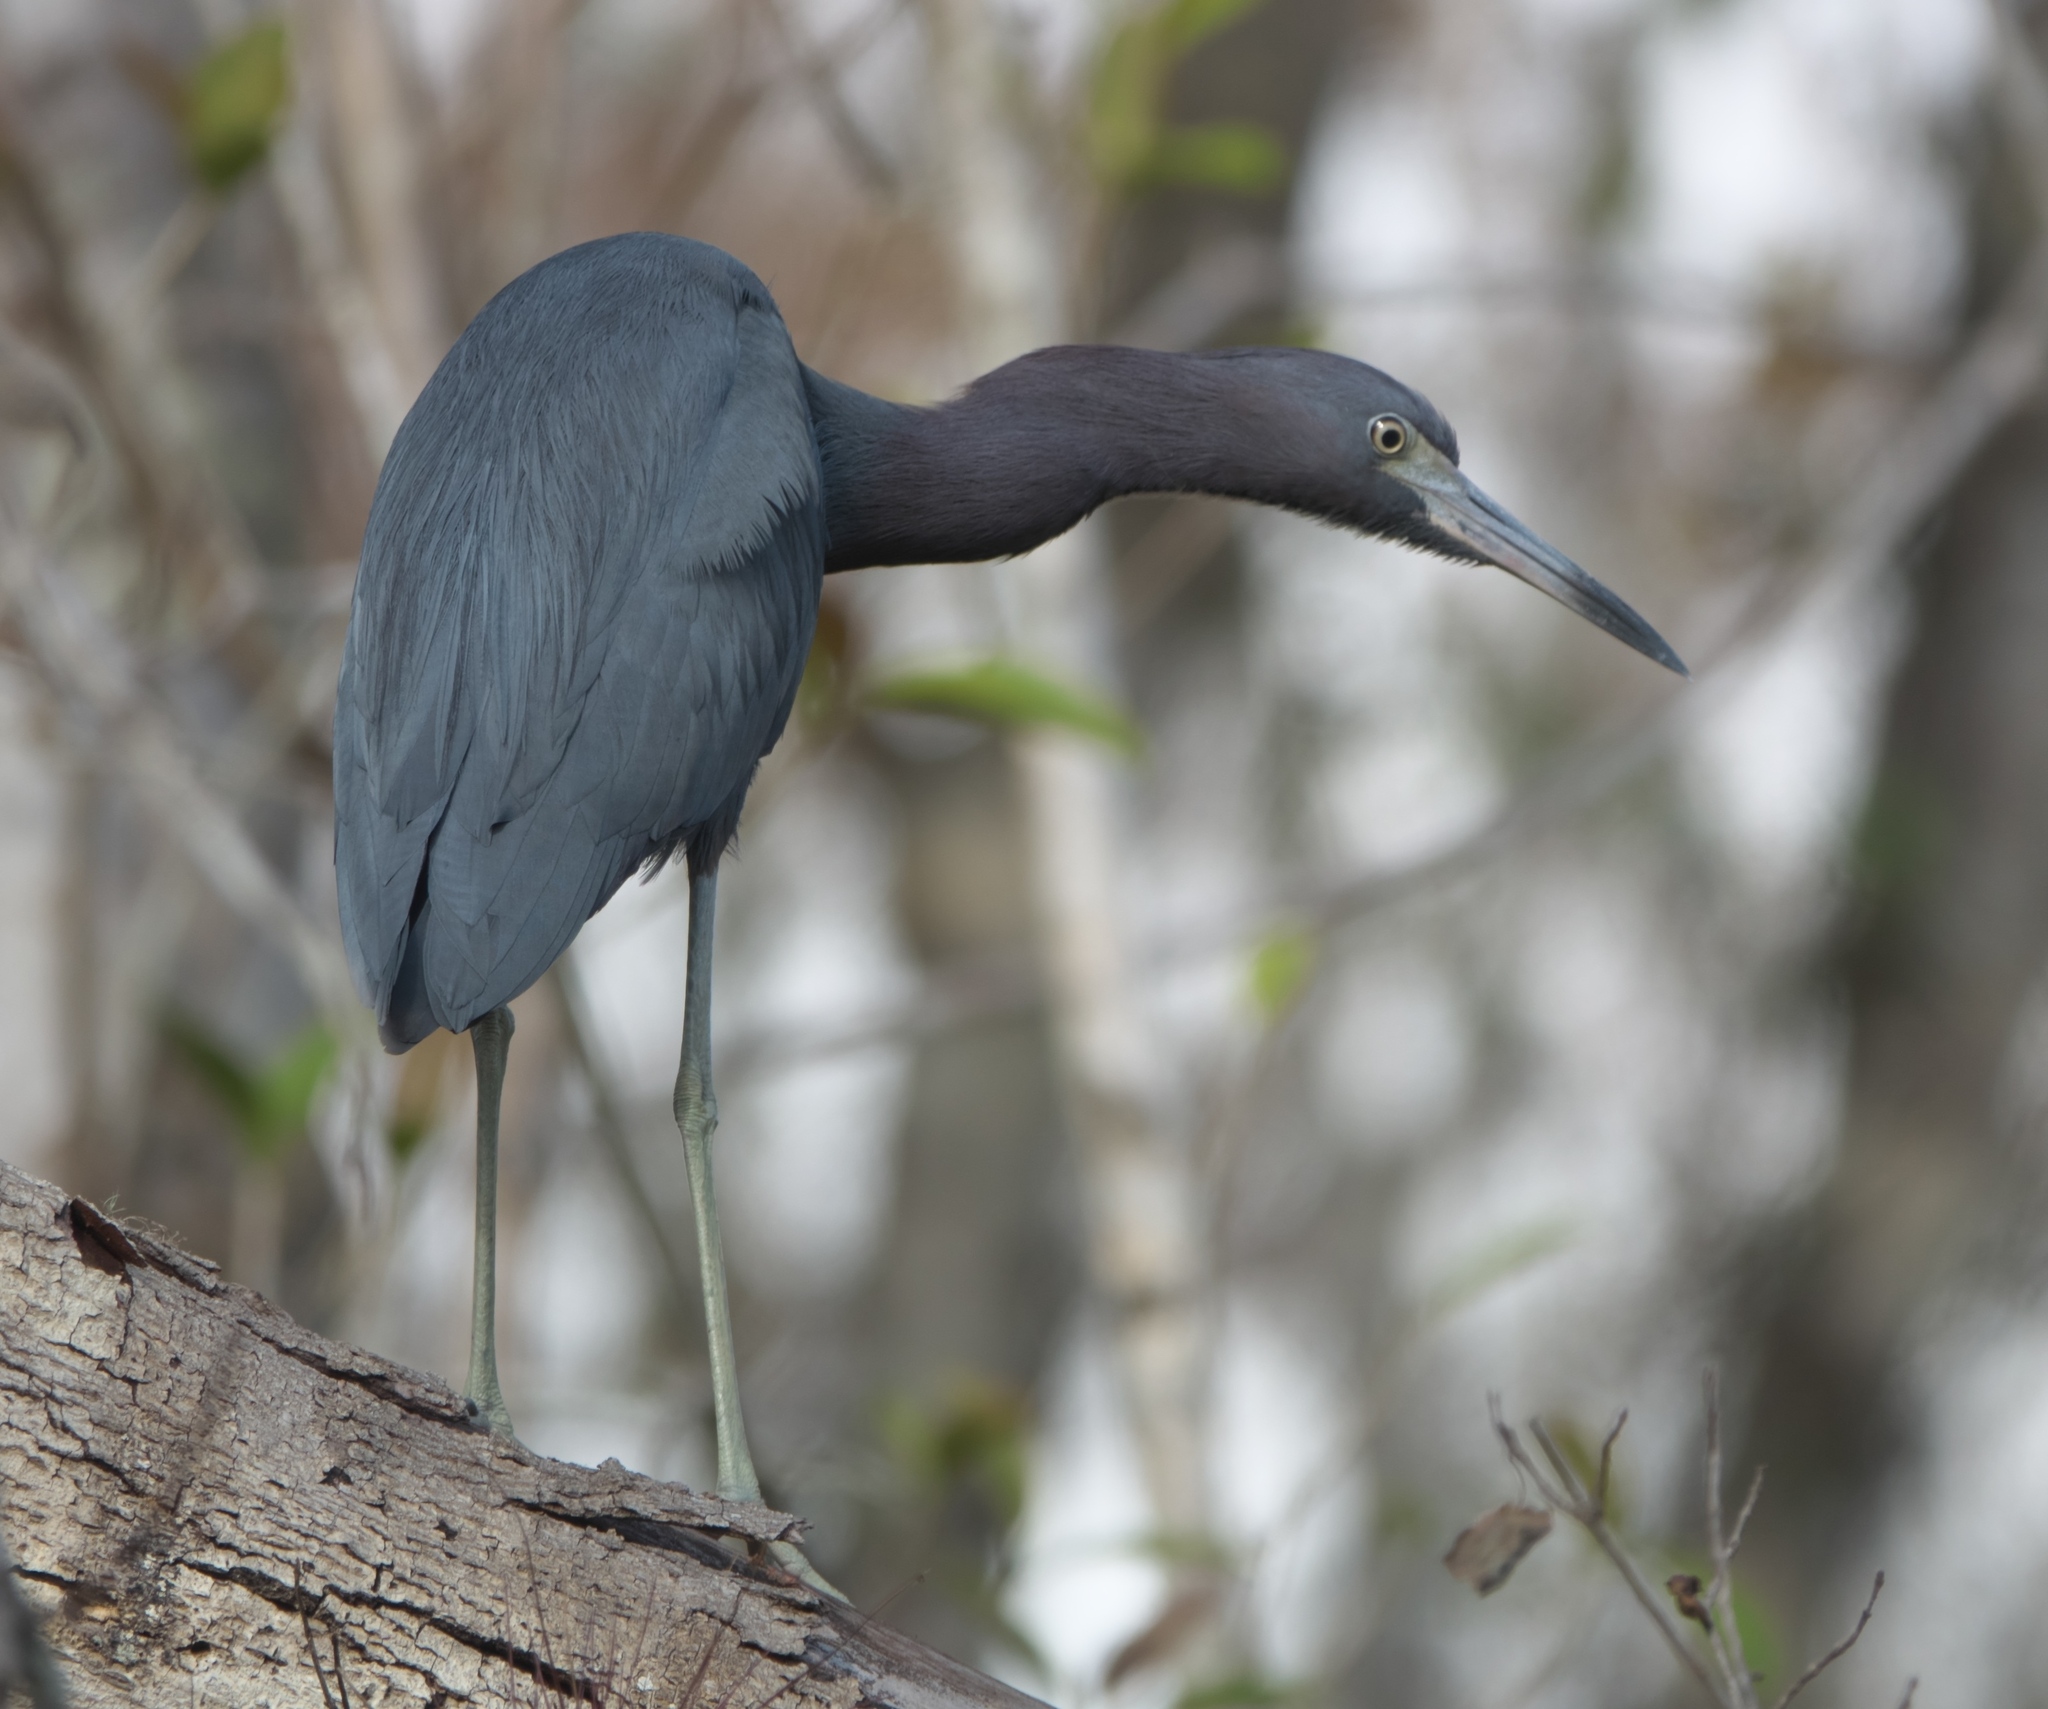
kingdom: Animalia
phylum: Chordata
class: Aves
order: Pelecaniformes
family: Ardeidae
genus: Egretta
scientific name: Egretta caerulea
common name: Little blue heron
